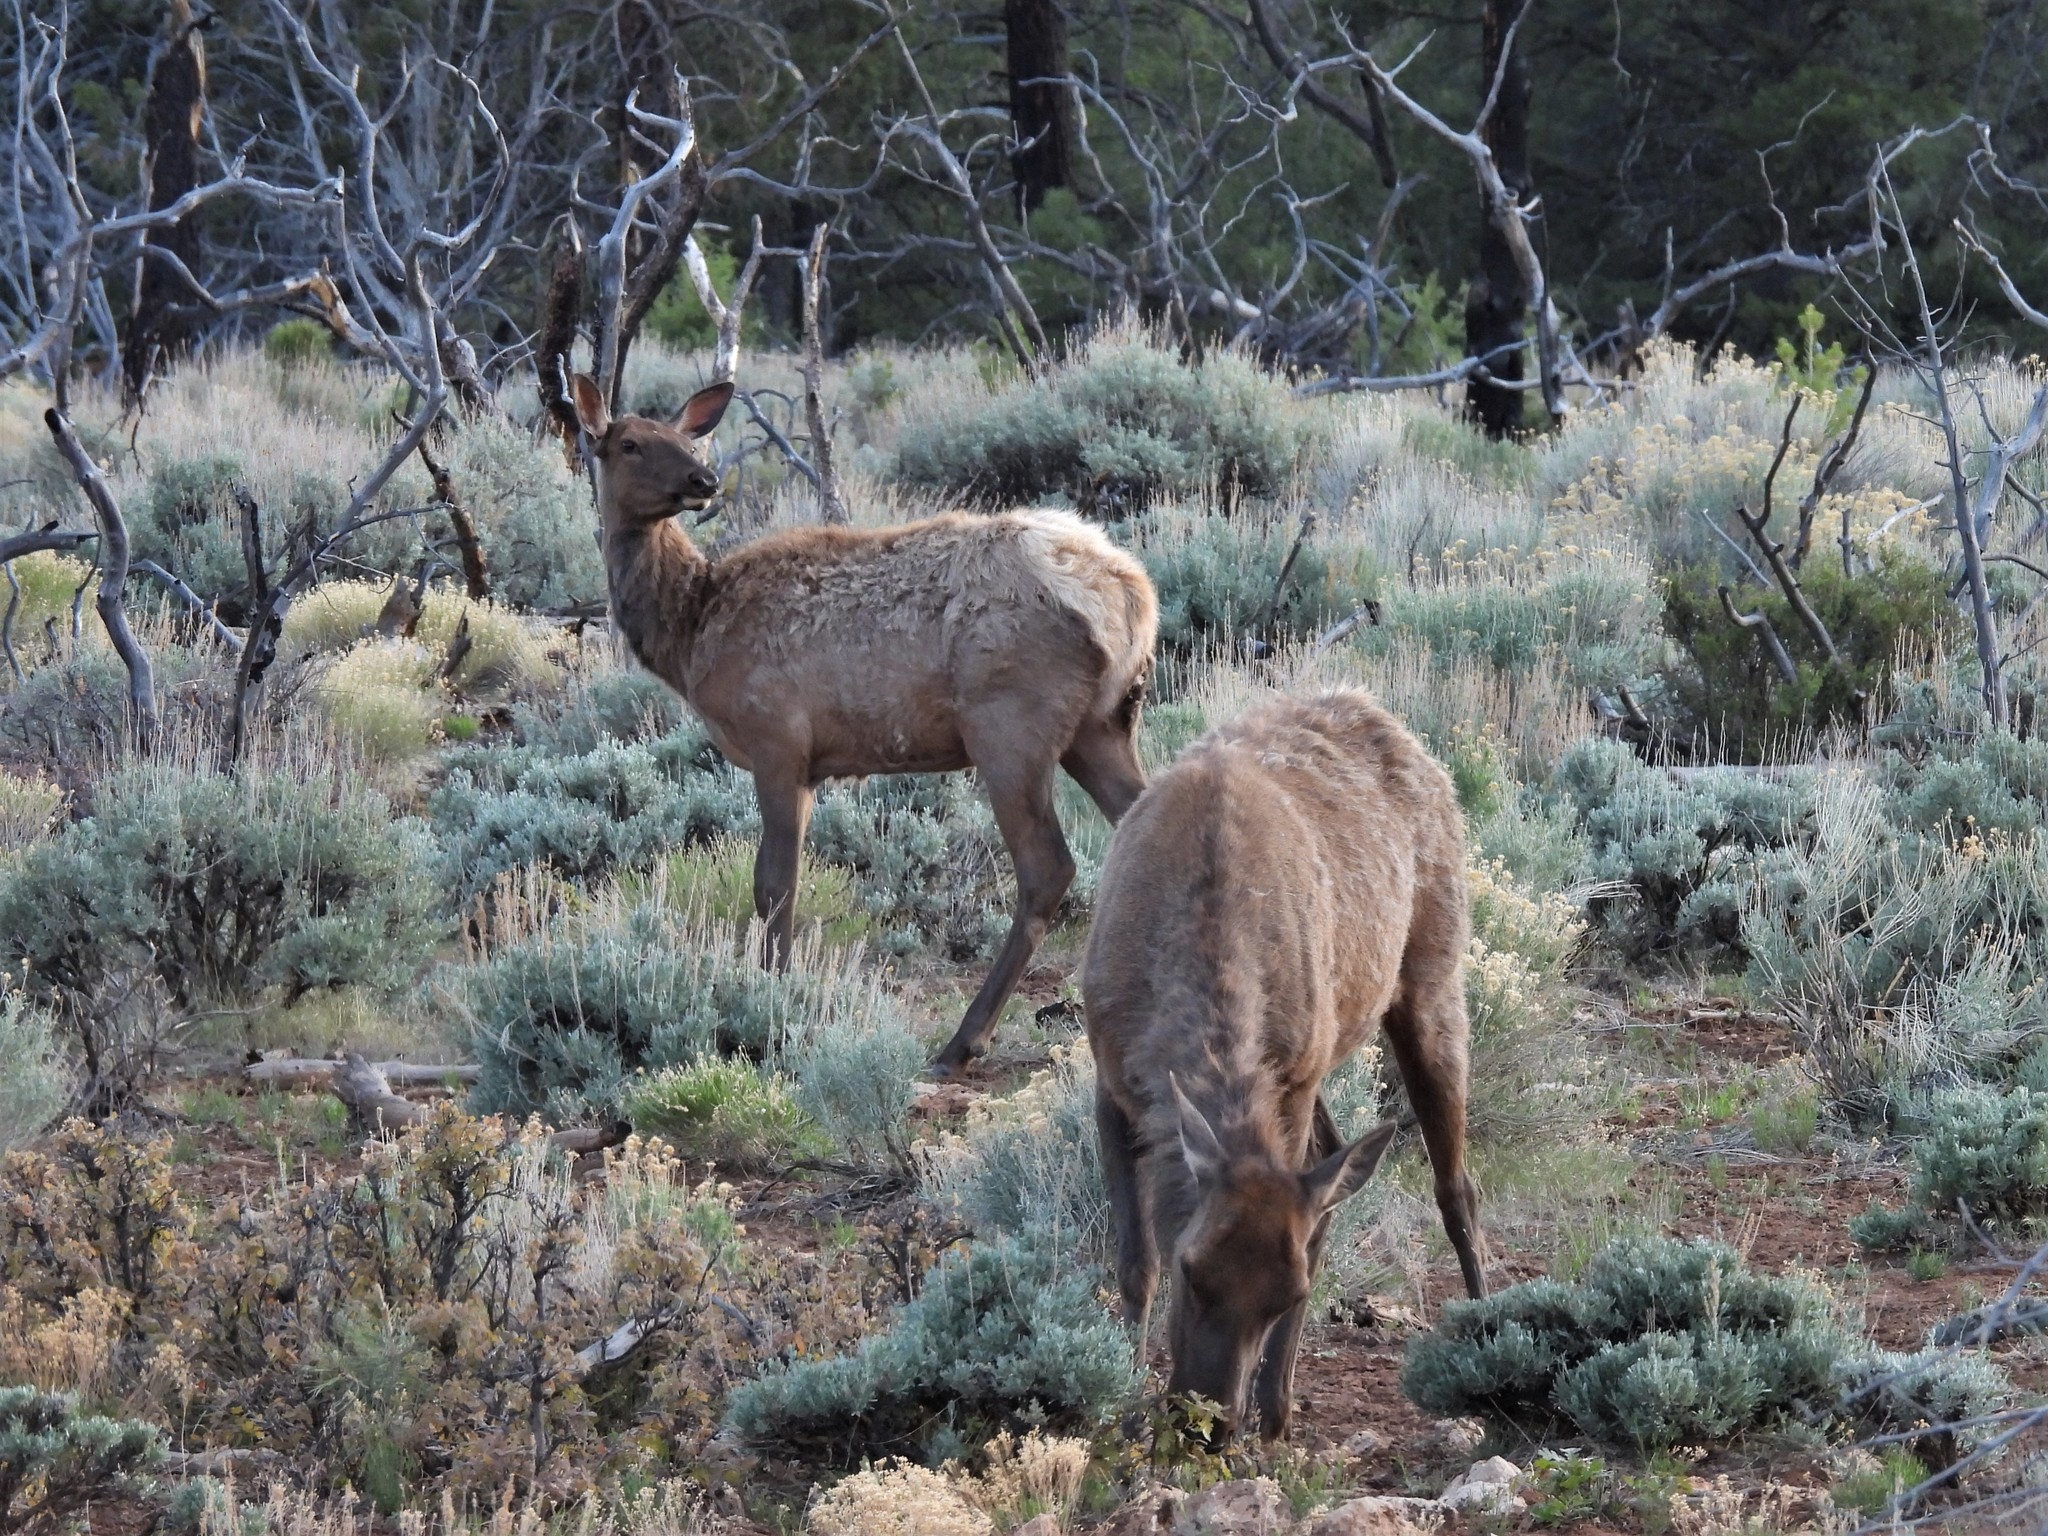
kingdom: Animalia
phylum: Chordata
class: Mammalia
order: Artiodactyla
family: Cervidae
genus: Cervus
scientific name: Cervus elaphus
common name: Red deer
